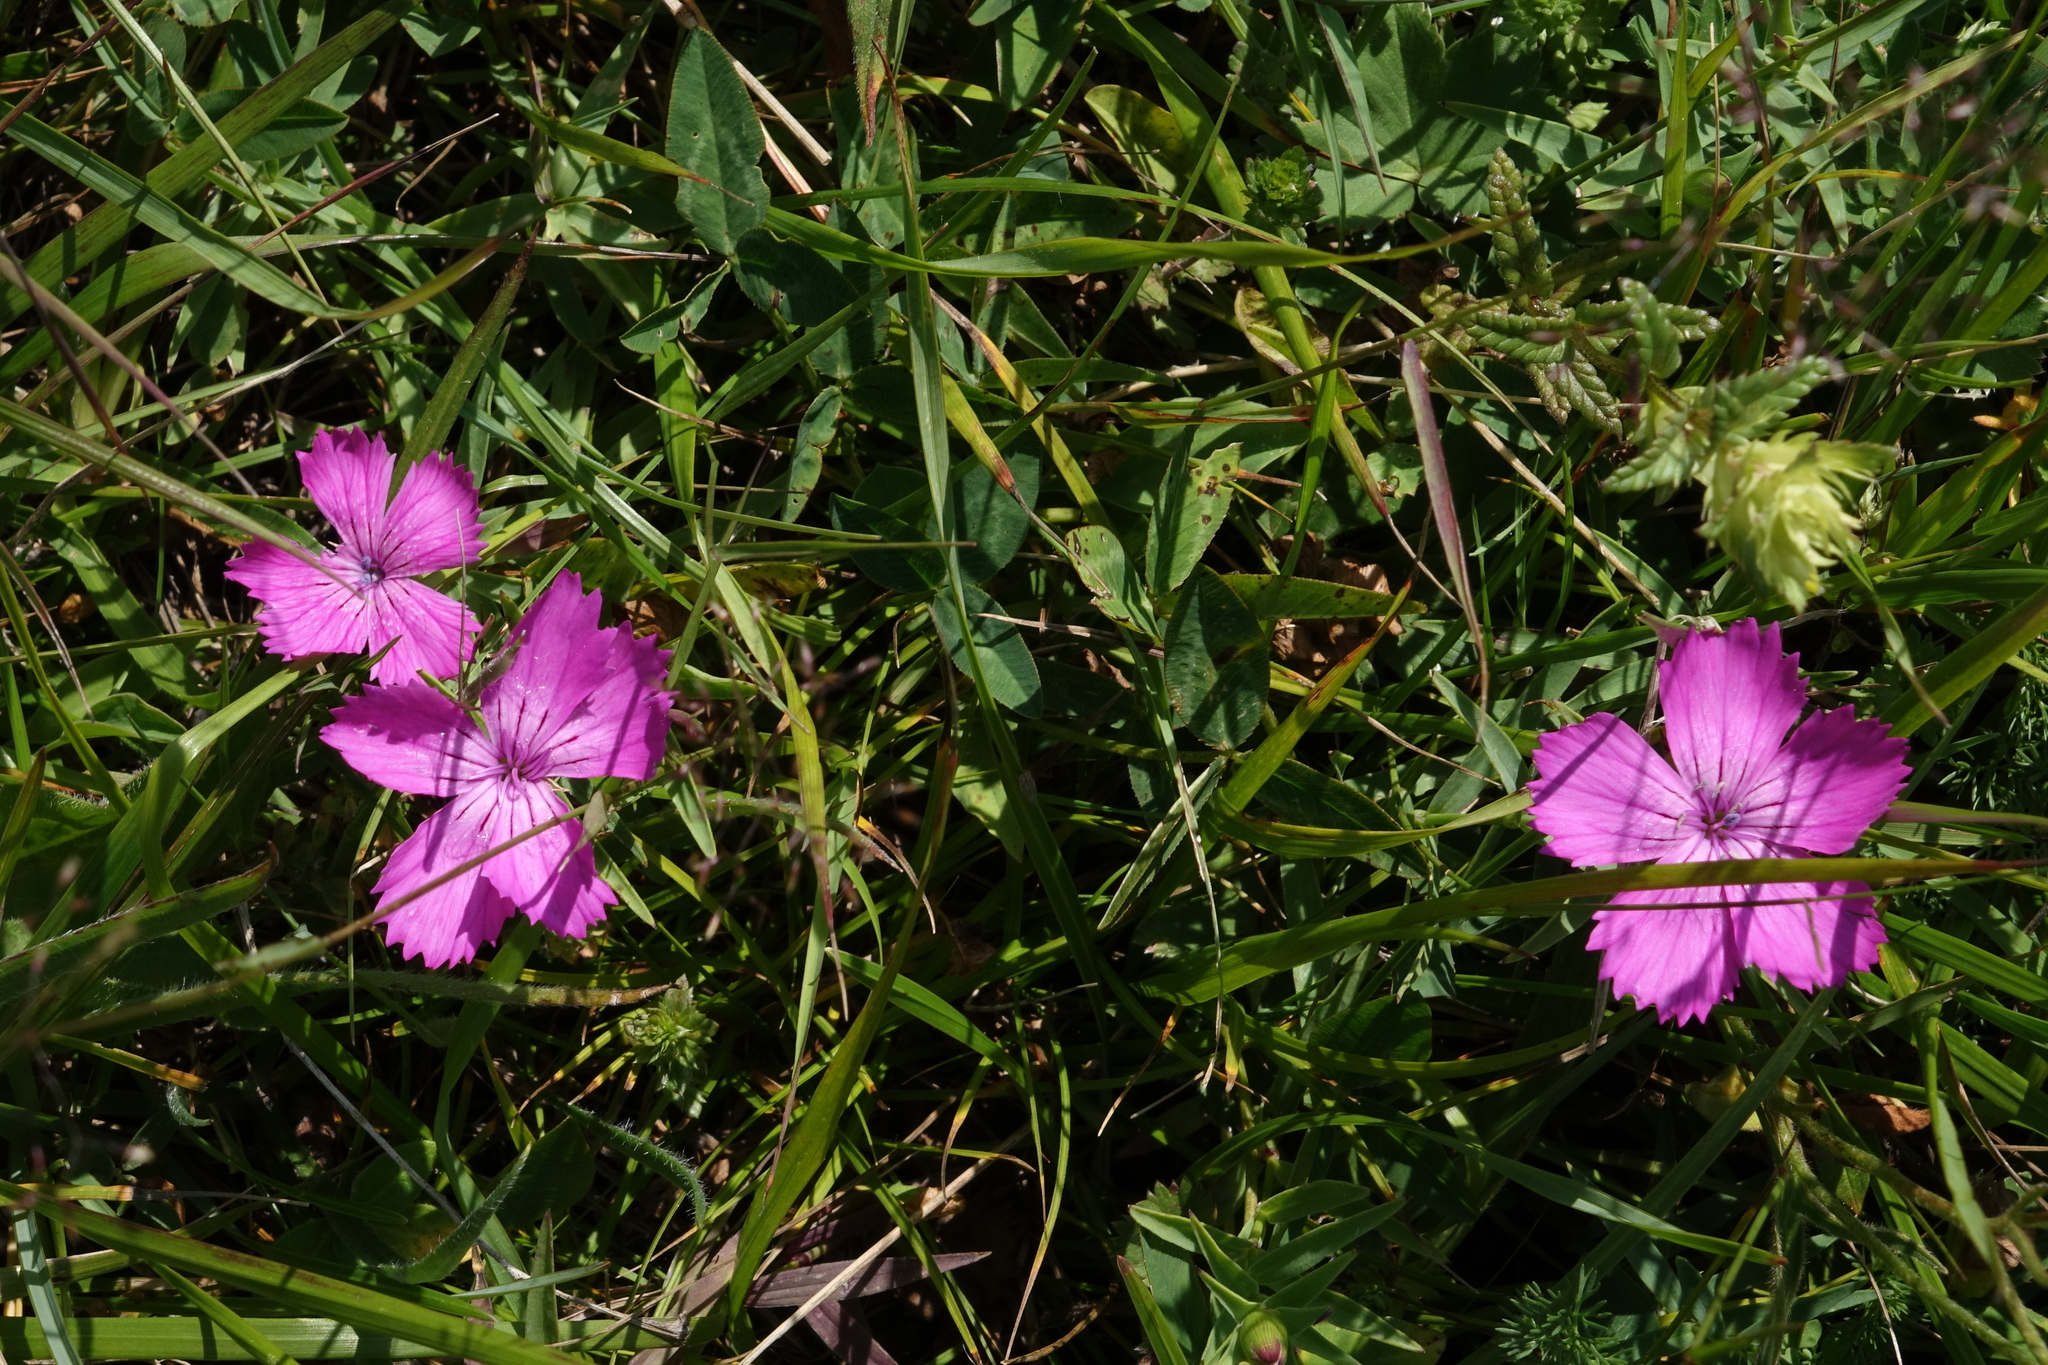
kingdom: Plantae
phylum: Tracheophyta
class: Magnoliopsida
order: Caryophyllales
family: Caryophyllaceae
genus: Dianthus
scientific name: Dianthus caucaseus
